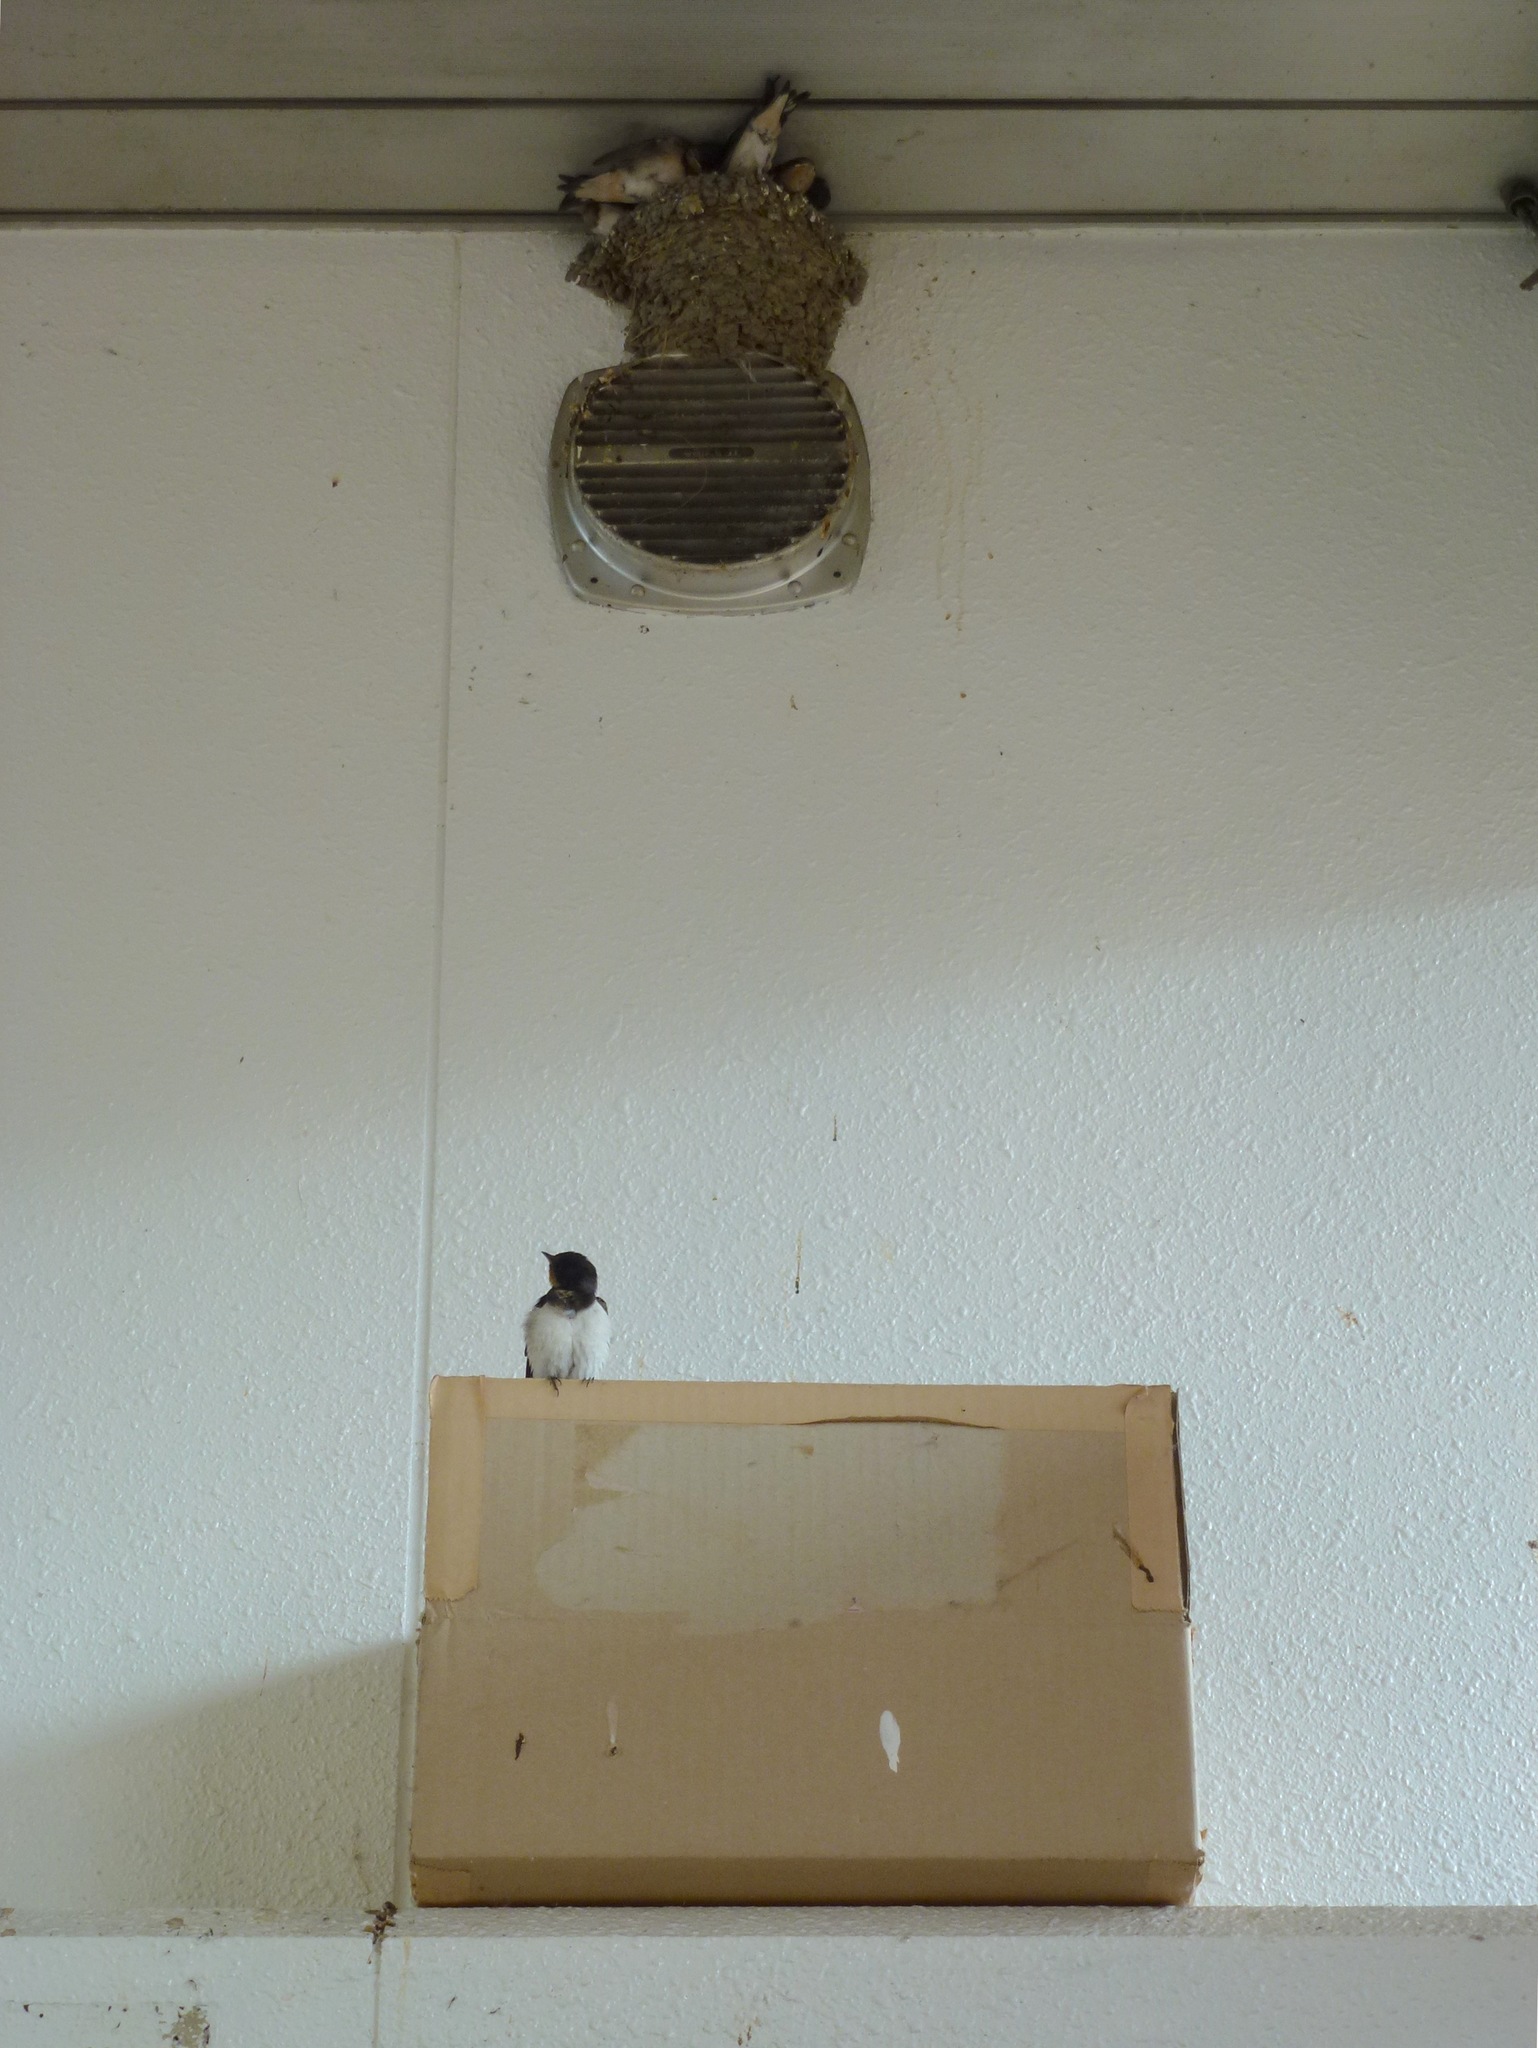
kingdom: Animalia
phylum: Chordata
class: Aves
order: Passeriformes
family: Hirundinidae
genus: Hirundo
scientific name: Hirundo rustica
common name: Barn swallow
